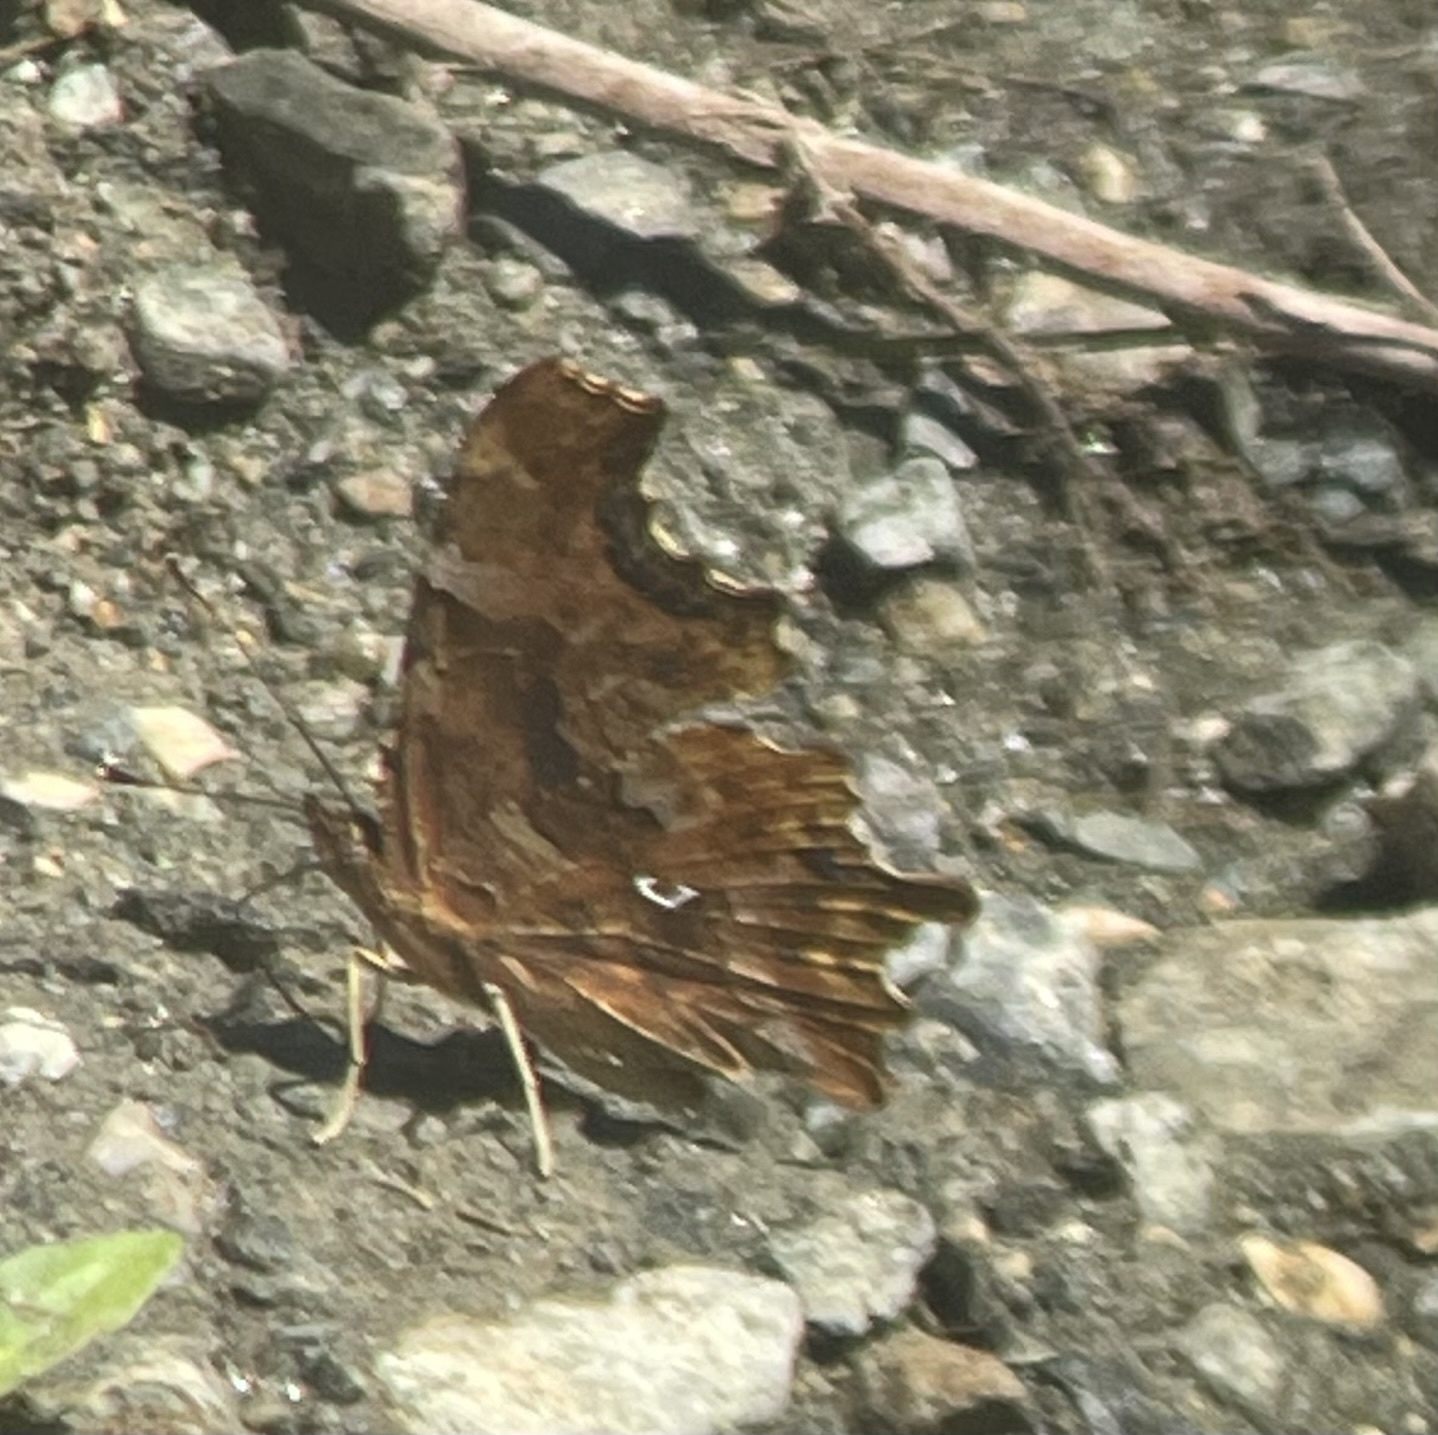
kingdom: Animalia
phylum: Arthropoda
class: Insecta
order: Lepidoptera
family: Nymphalidae
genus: Polygonia
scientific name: Polygonia c-album
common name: Comma
